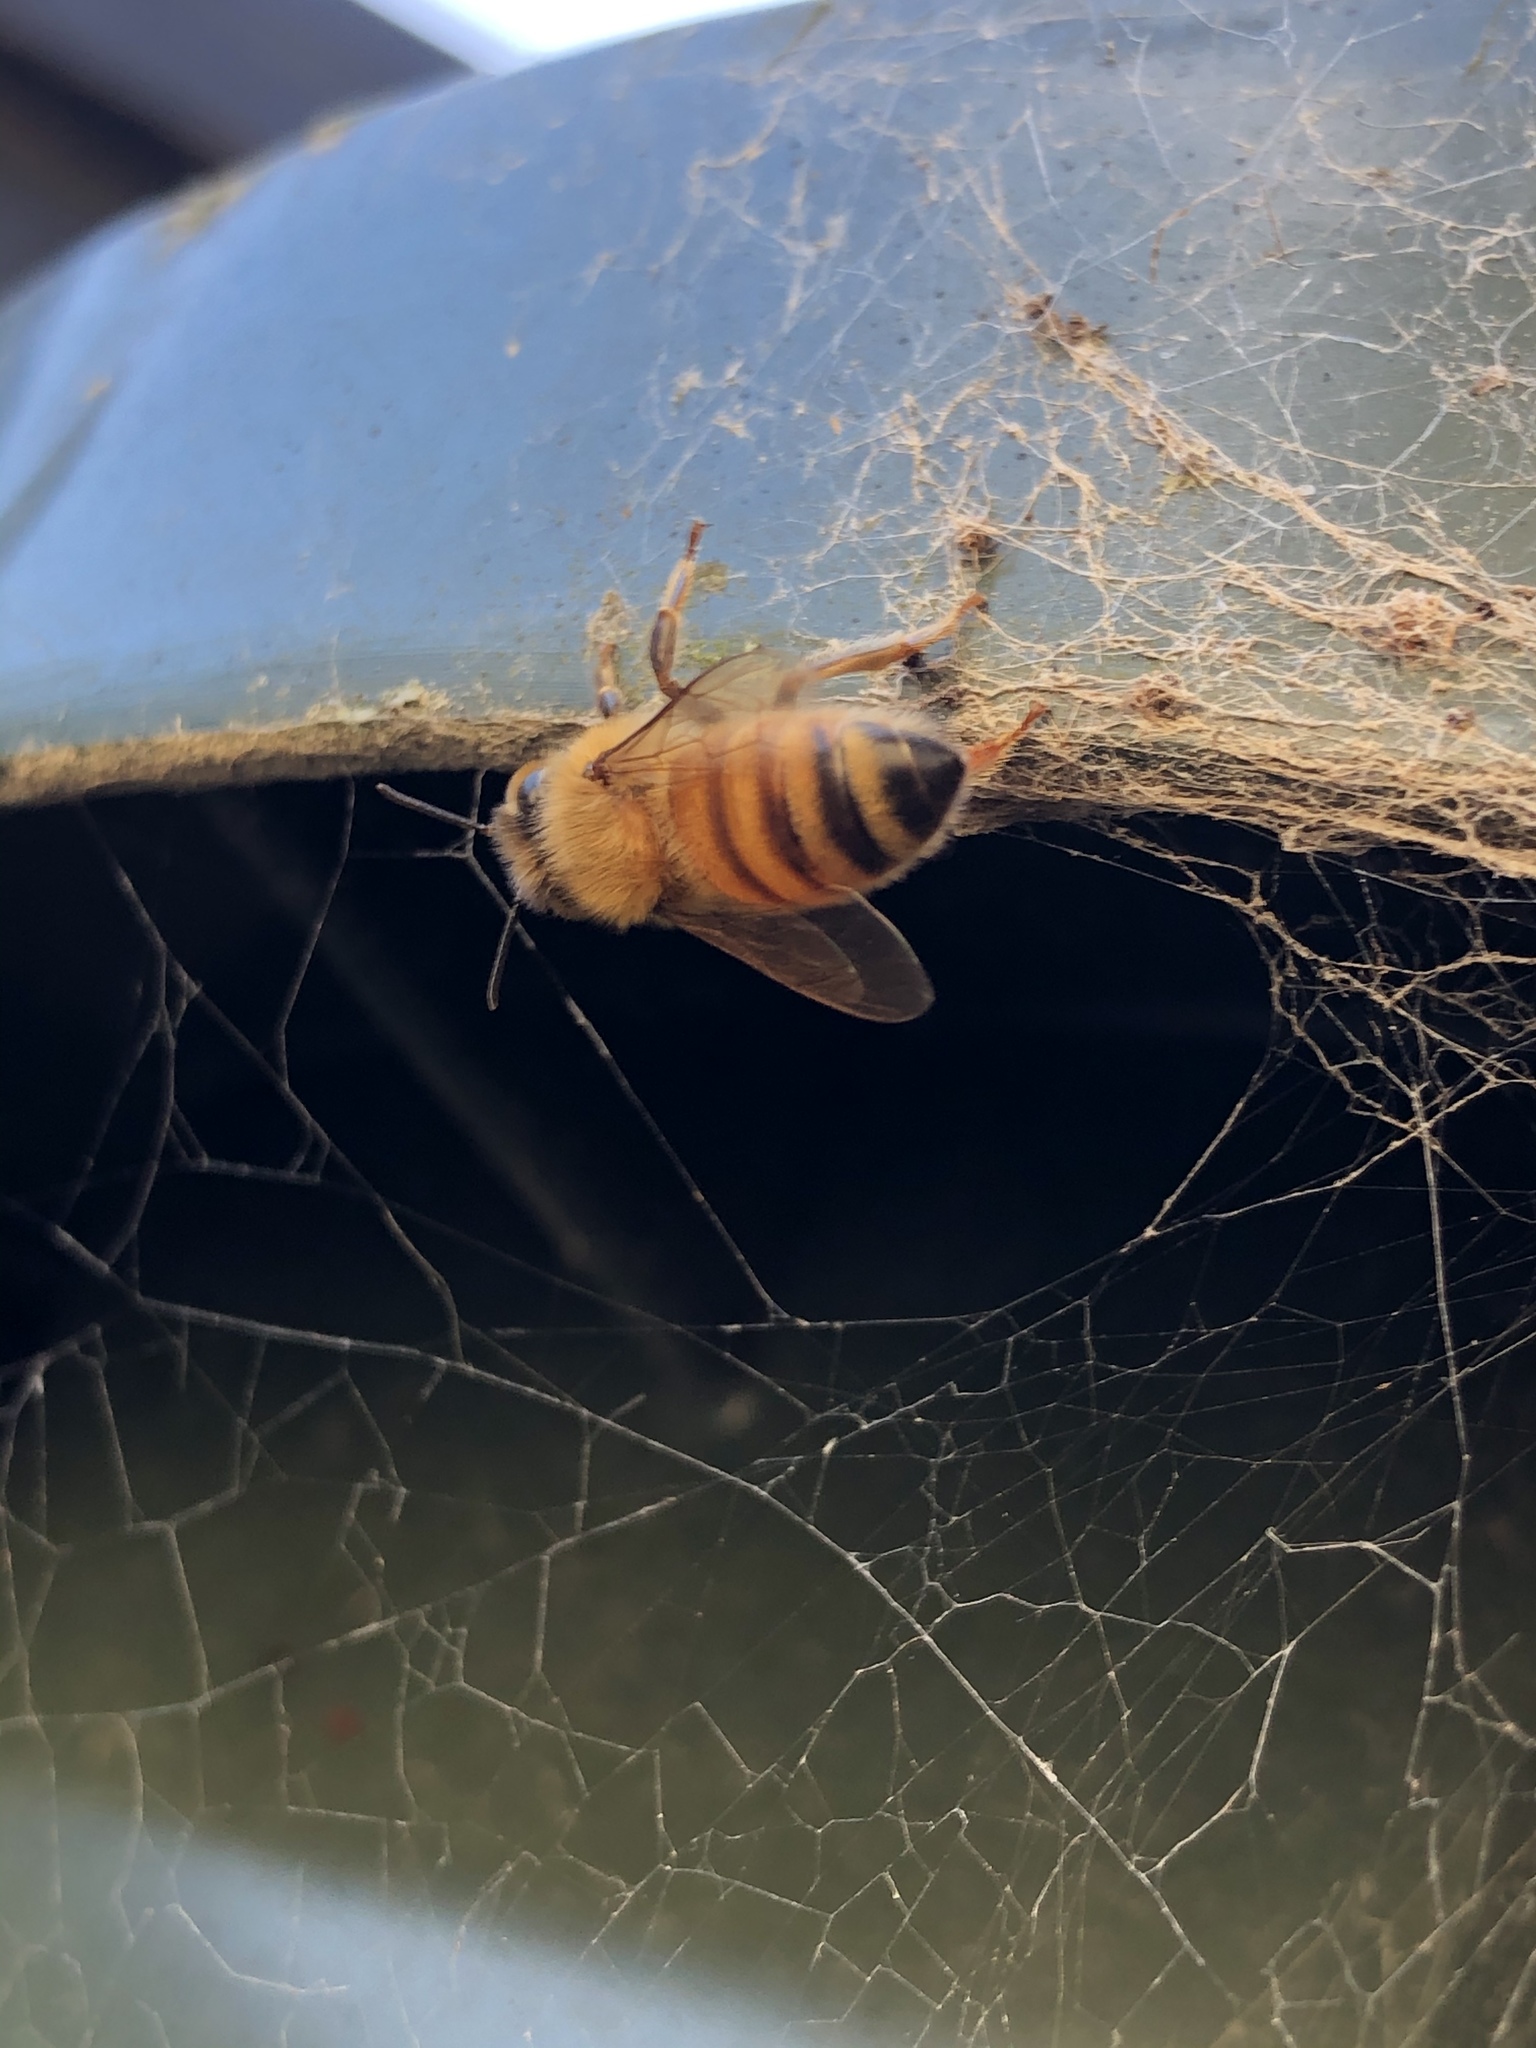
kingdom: Animalia
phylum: Arthropoda
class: Insecta
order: Hymenoptera
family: Apidae
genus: Apis
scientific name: Apis mellifera
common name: Honey bee
